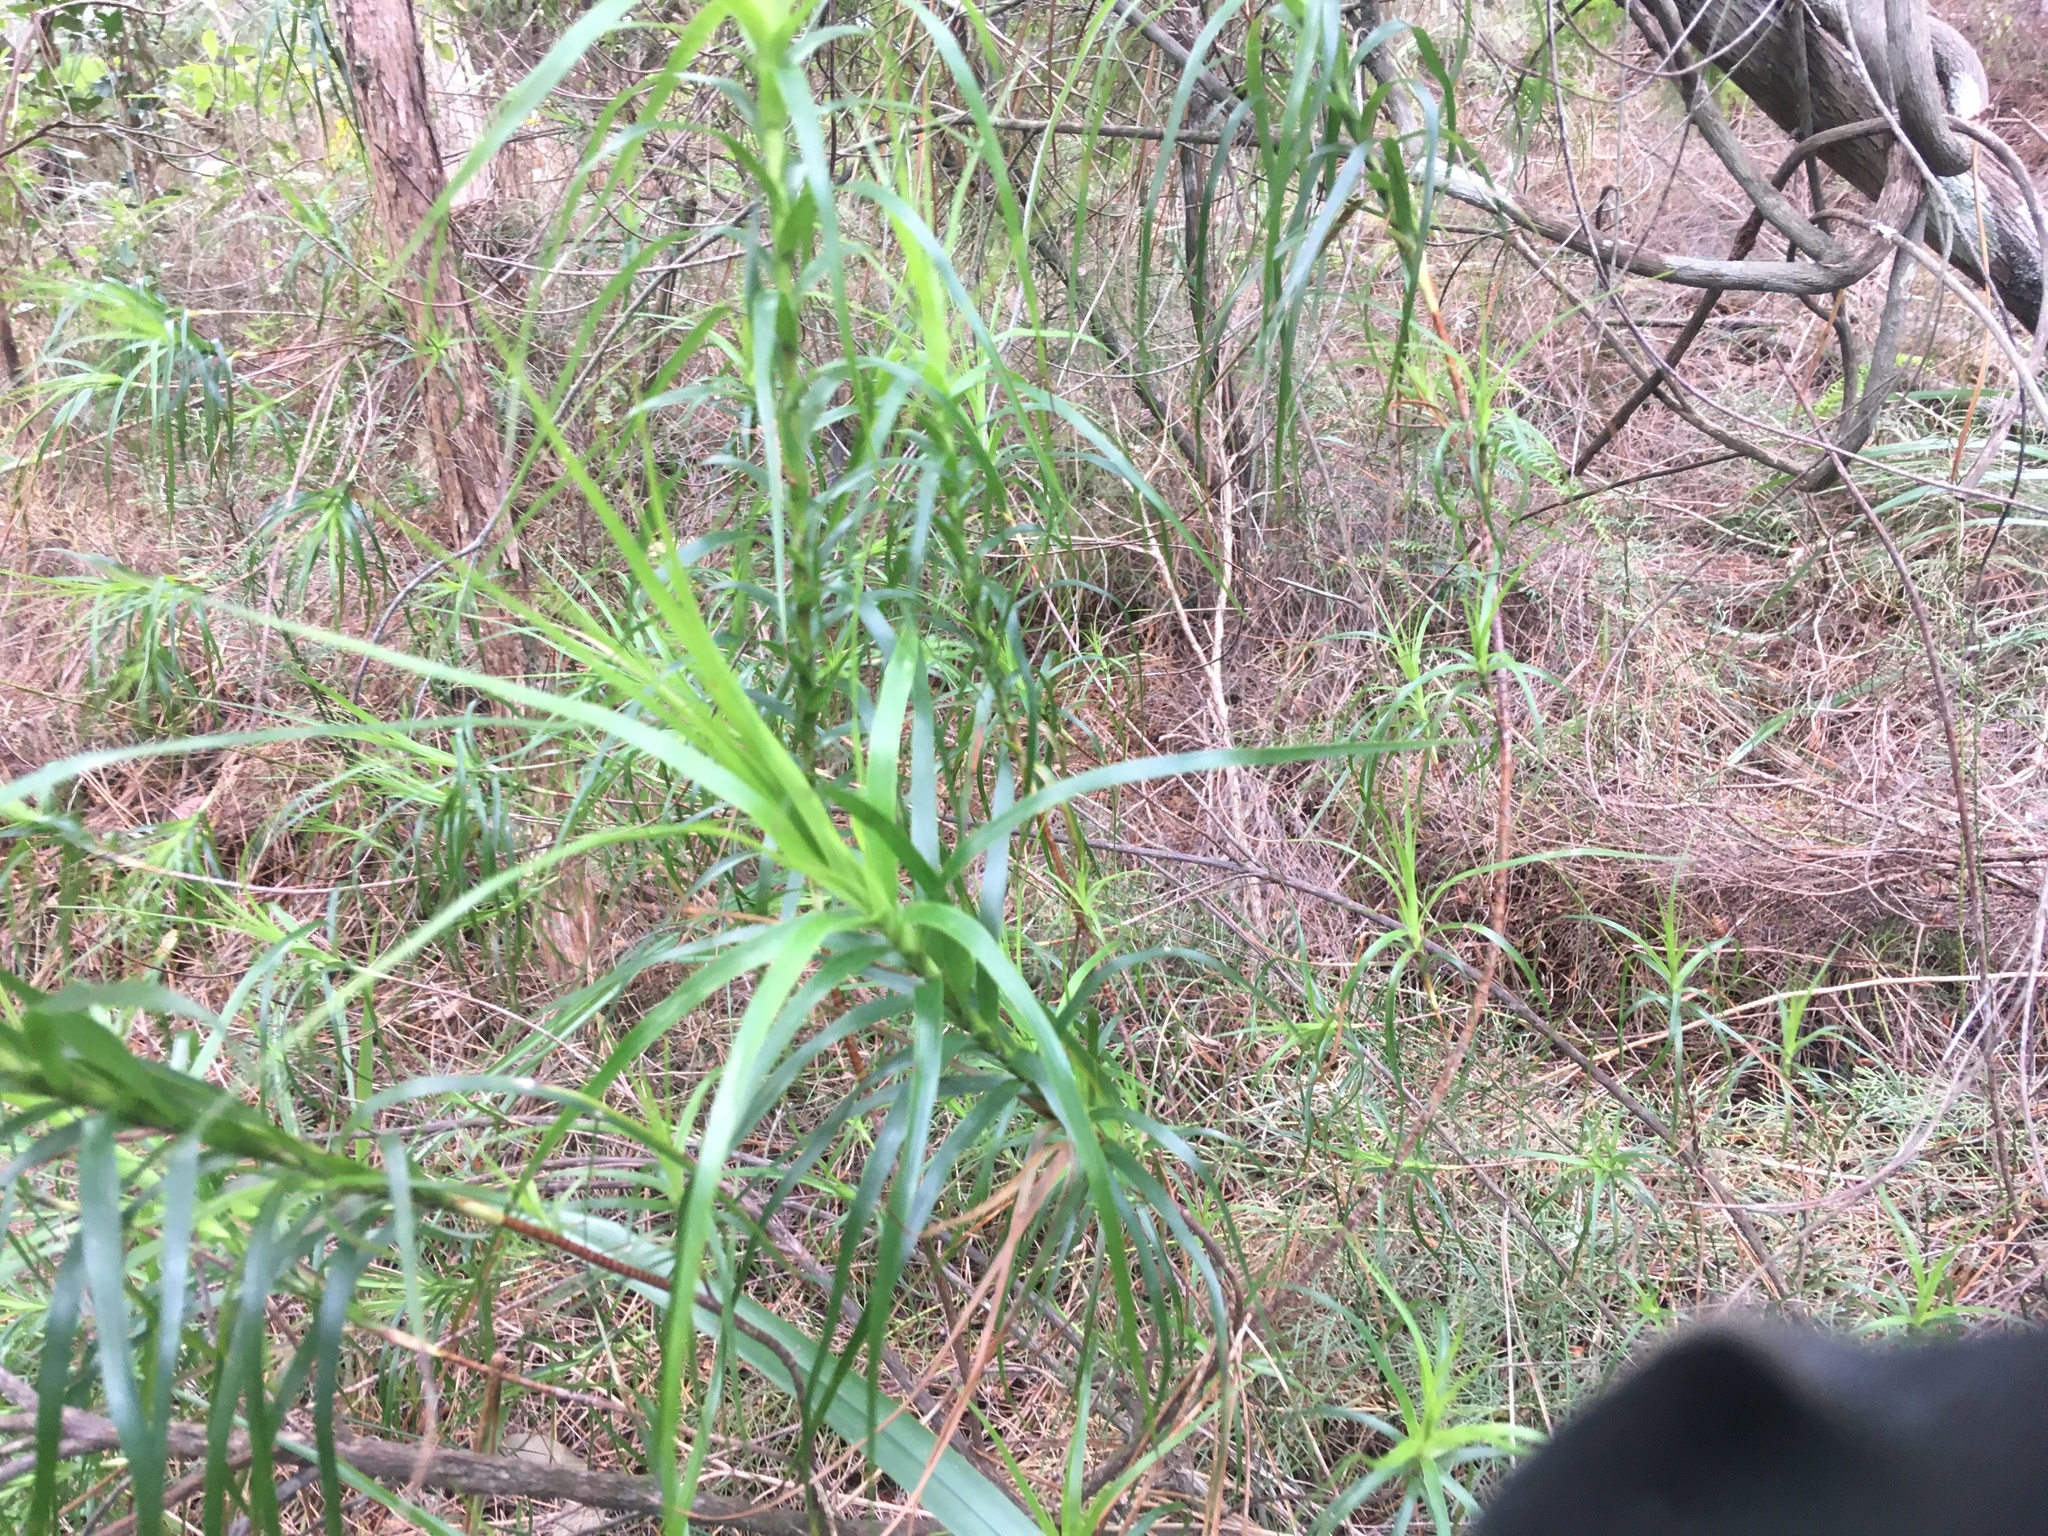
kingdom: Plantae
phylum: Tracheophyta
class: Magnoliopsida
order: Ericales
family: Ericaceae
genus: Dracophyllum
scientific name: Dracophyllum sinclairii
